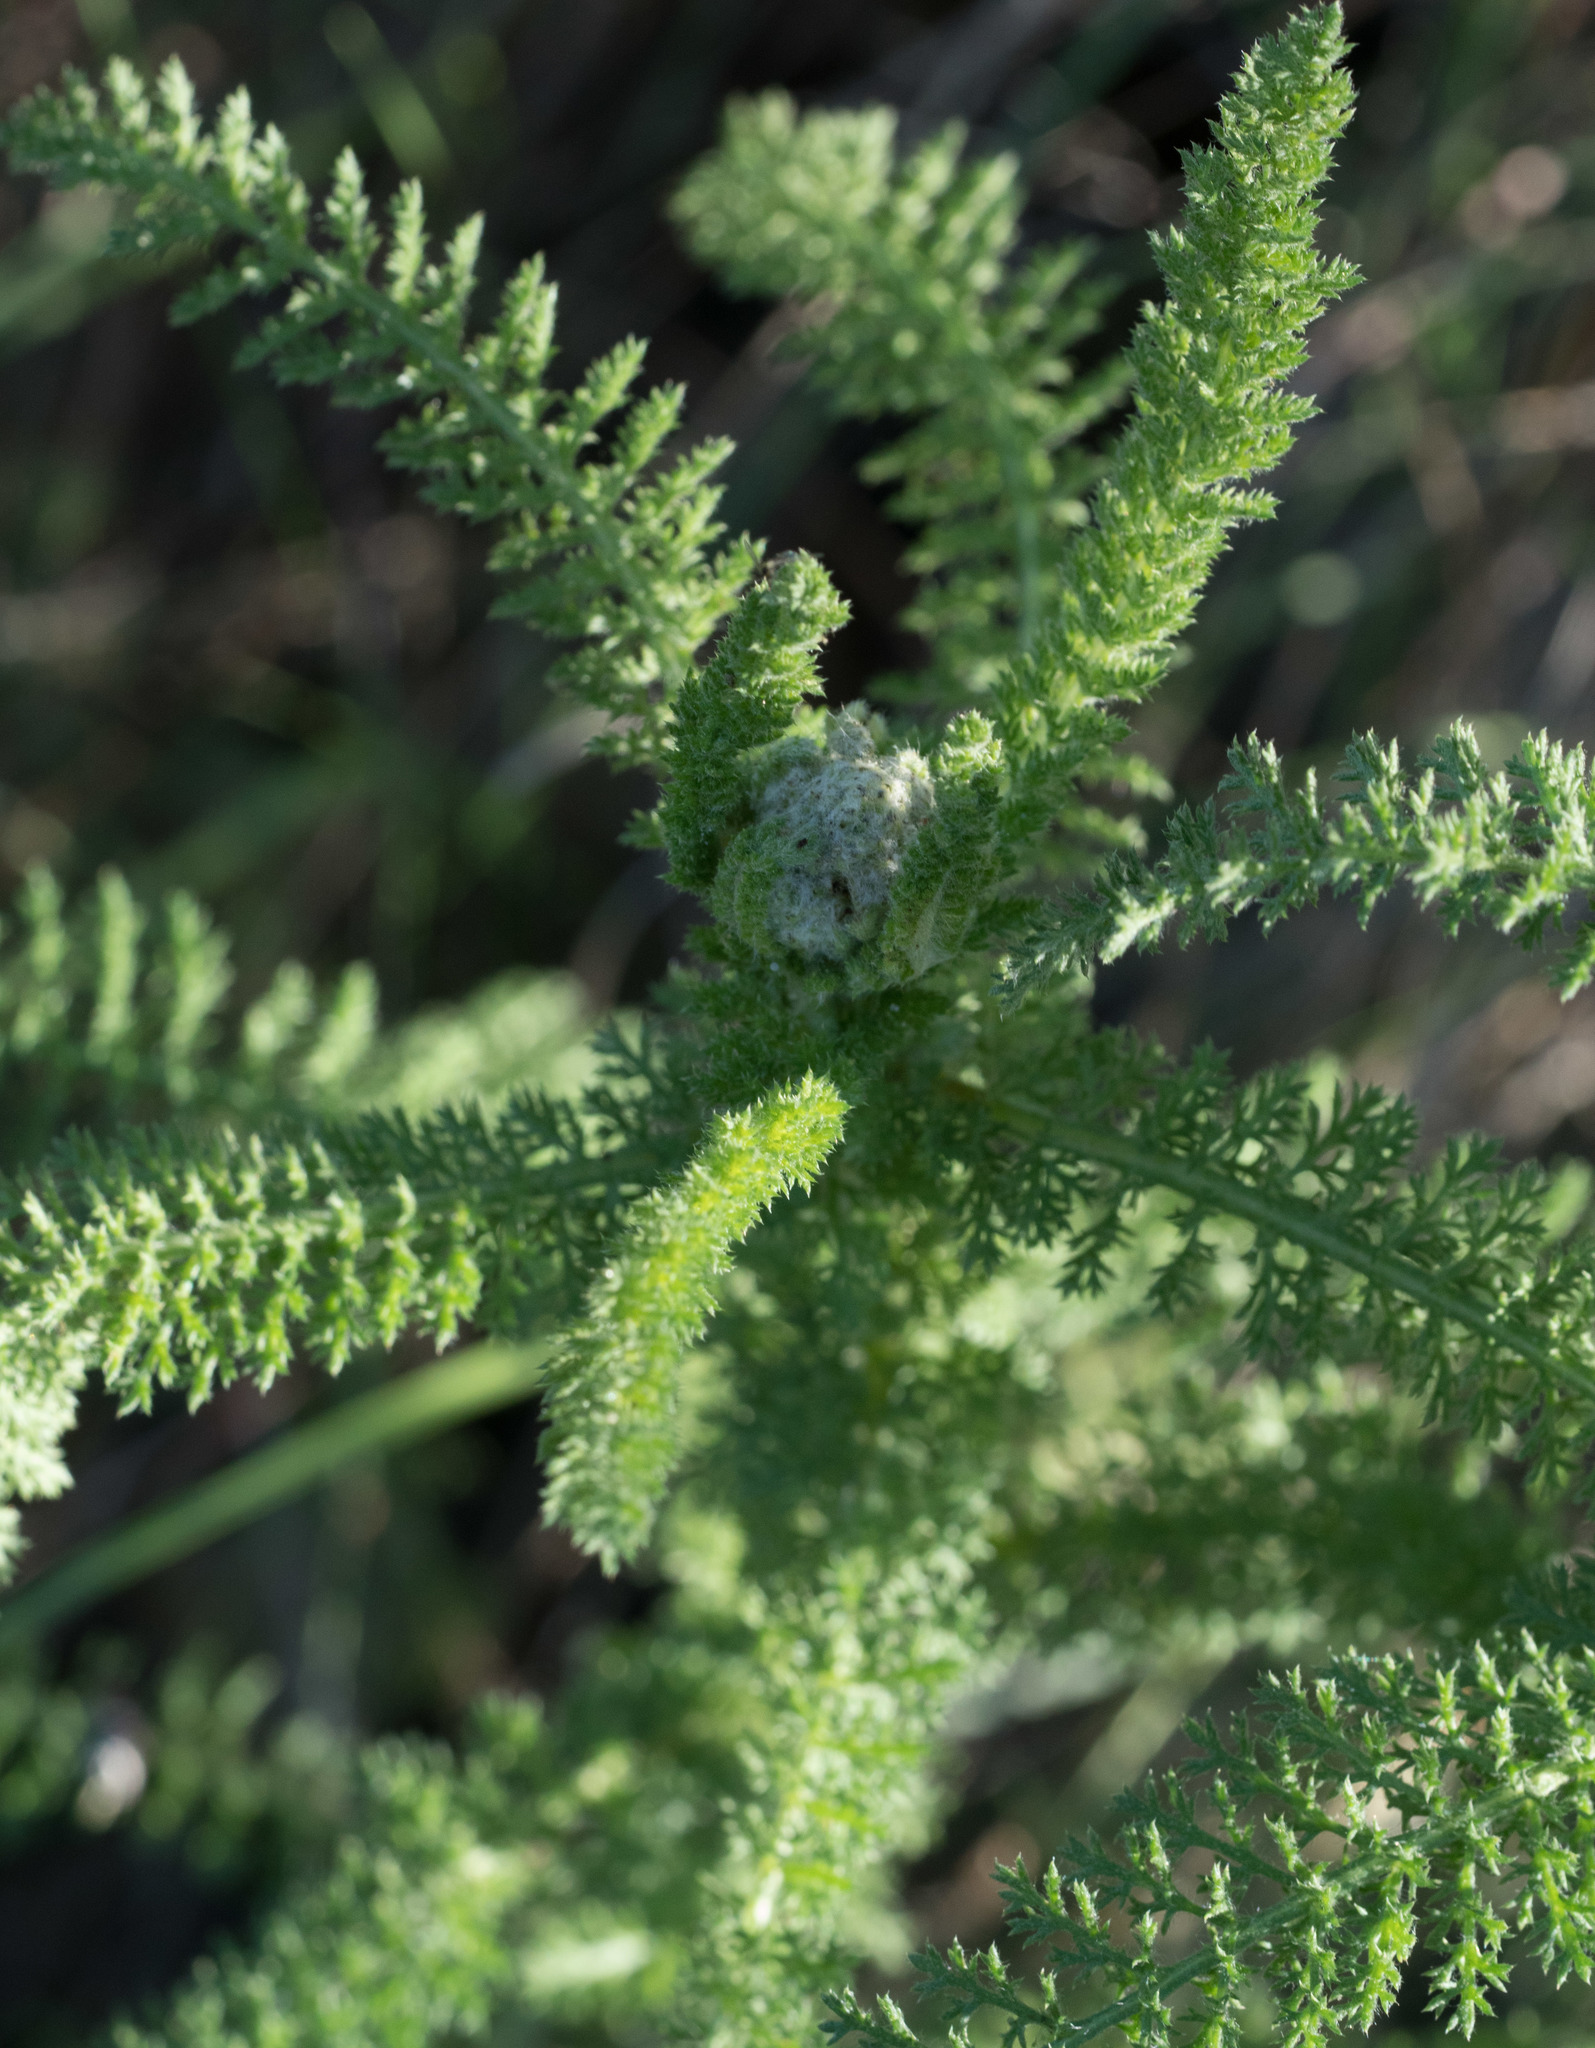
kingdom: Plantae
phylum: Tracheophyta
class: Magnoliopsida
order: Asterales
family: Asteraceae
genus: Achillea
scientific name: Achillea millefolium
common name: Yarrow
